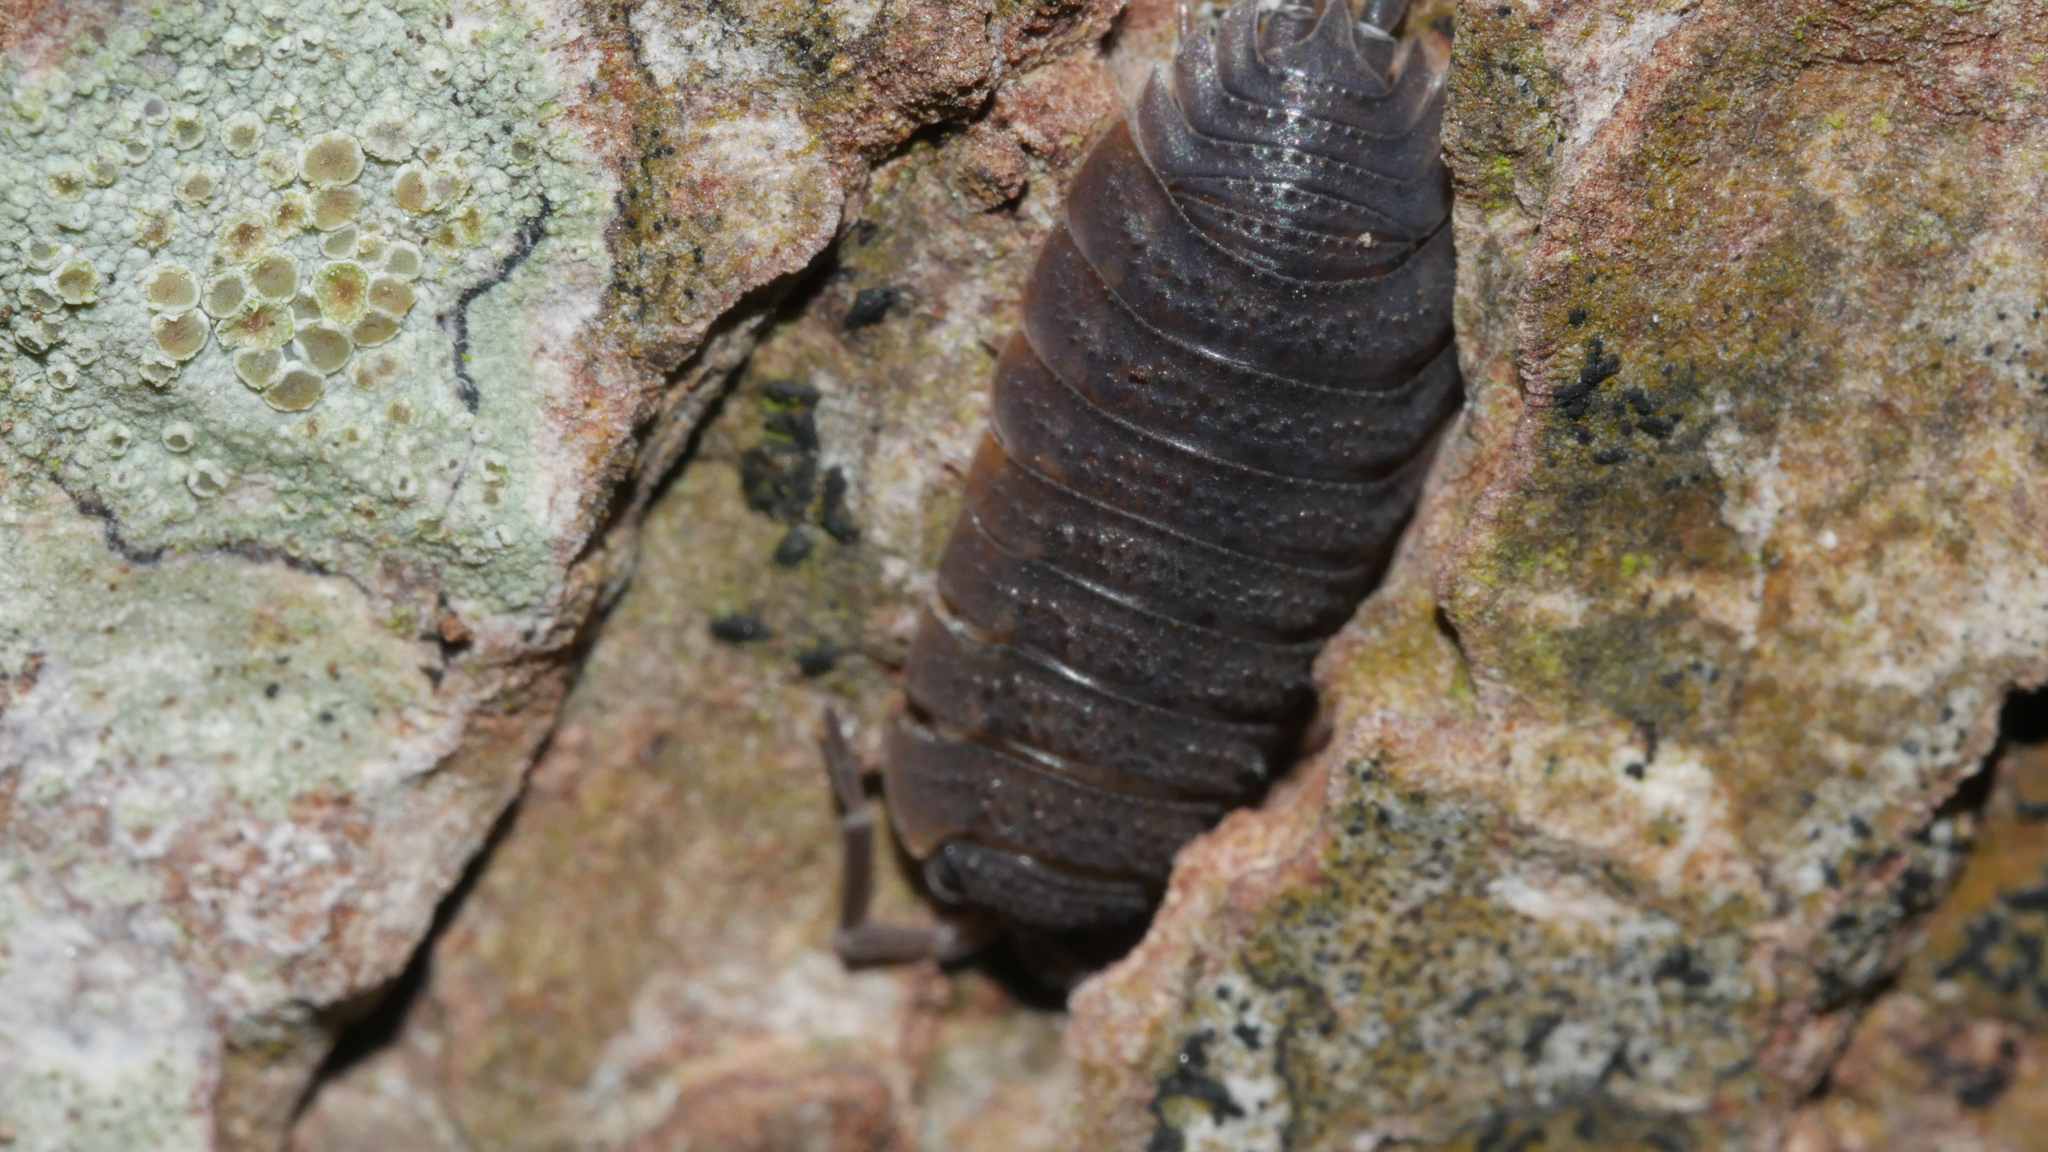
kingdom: Animalia
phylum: Arthropoda
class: Malacostraca
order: Isopoda
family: Porcellionidae
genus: Porcellio
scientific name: Porcellio scaber
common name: Common rough woodlouse
